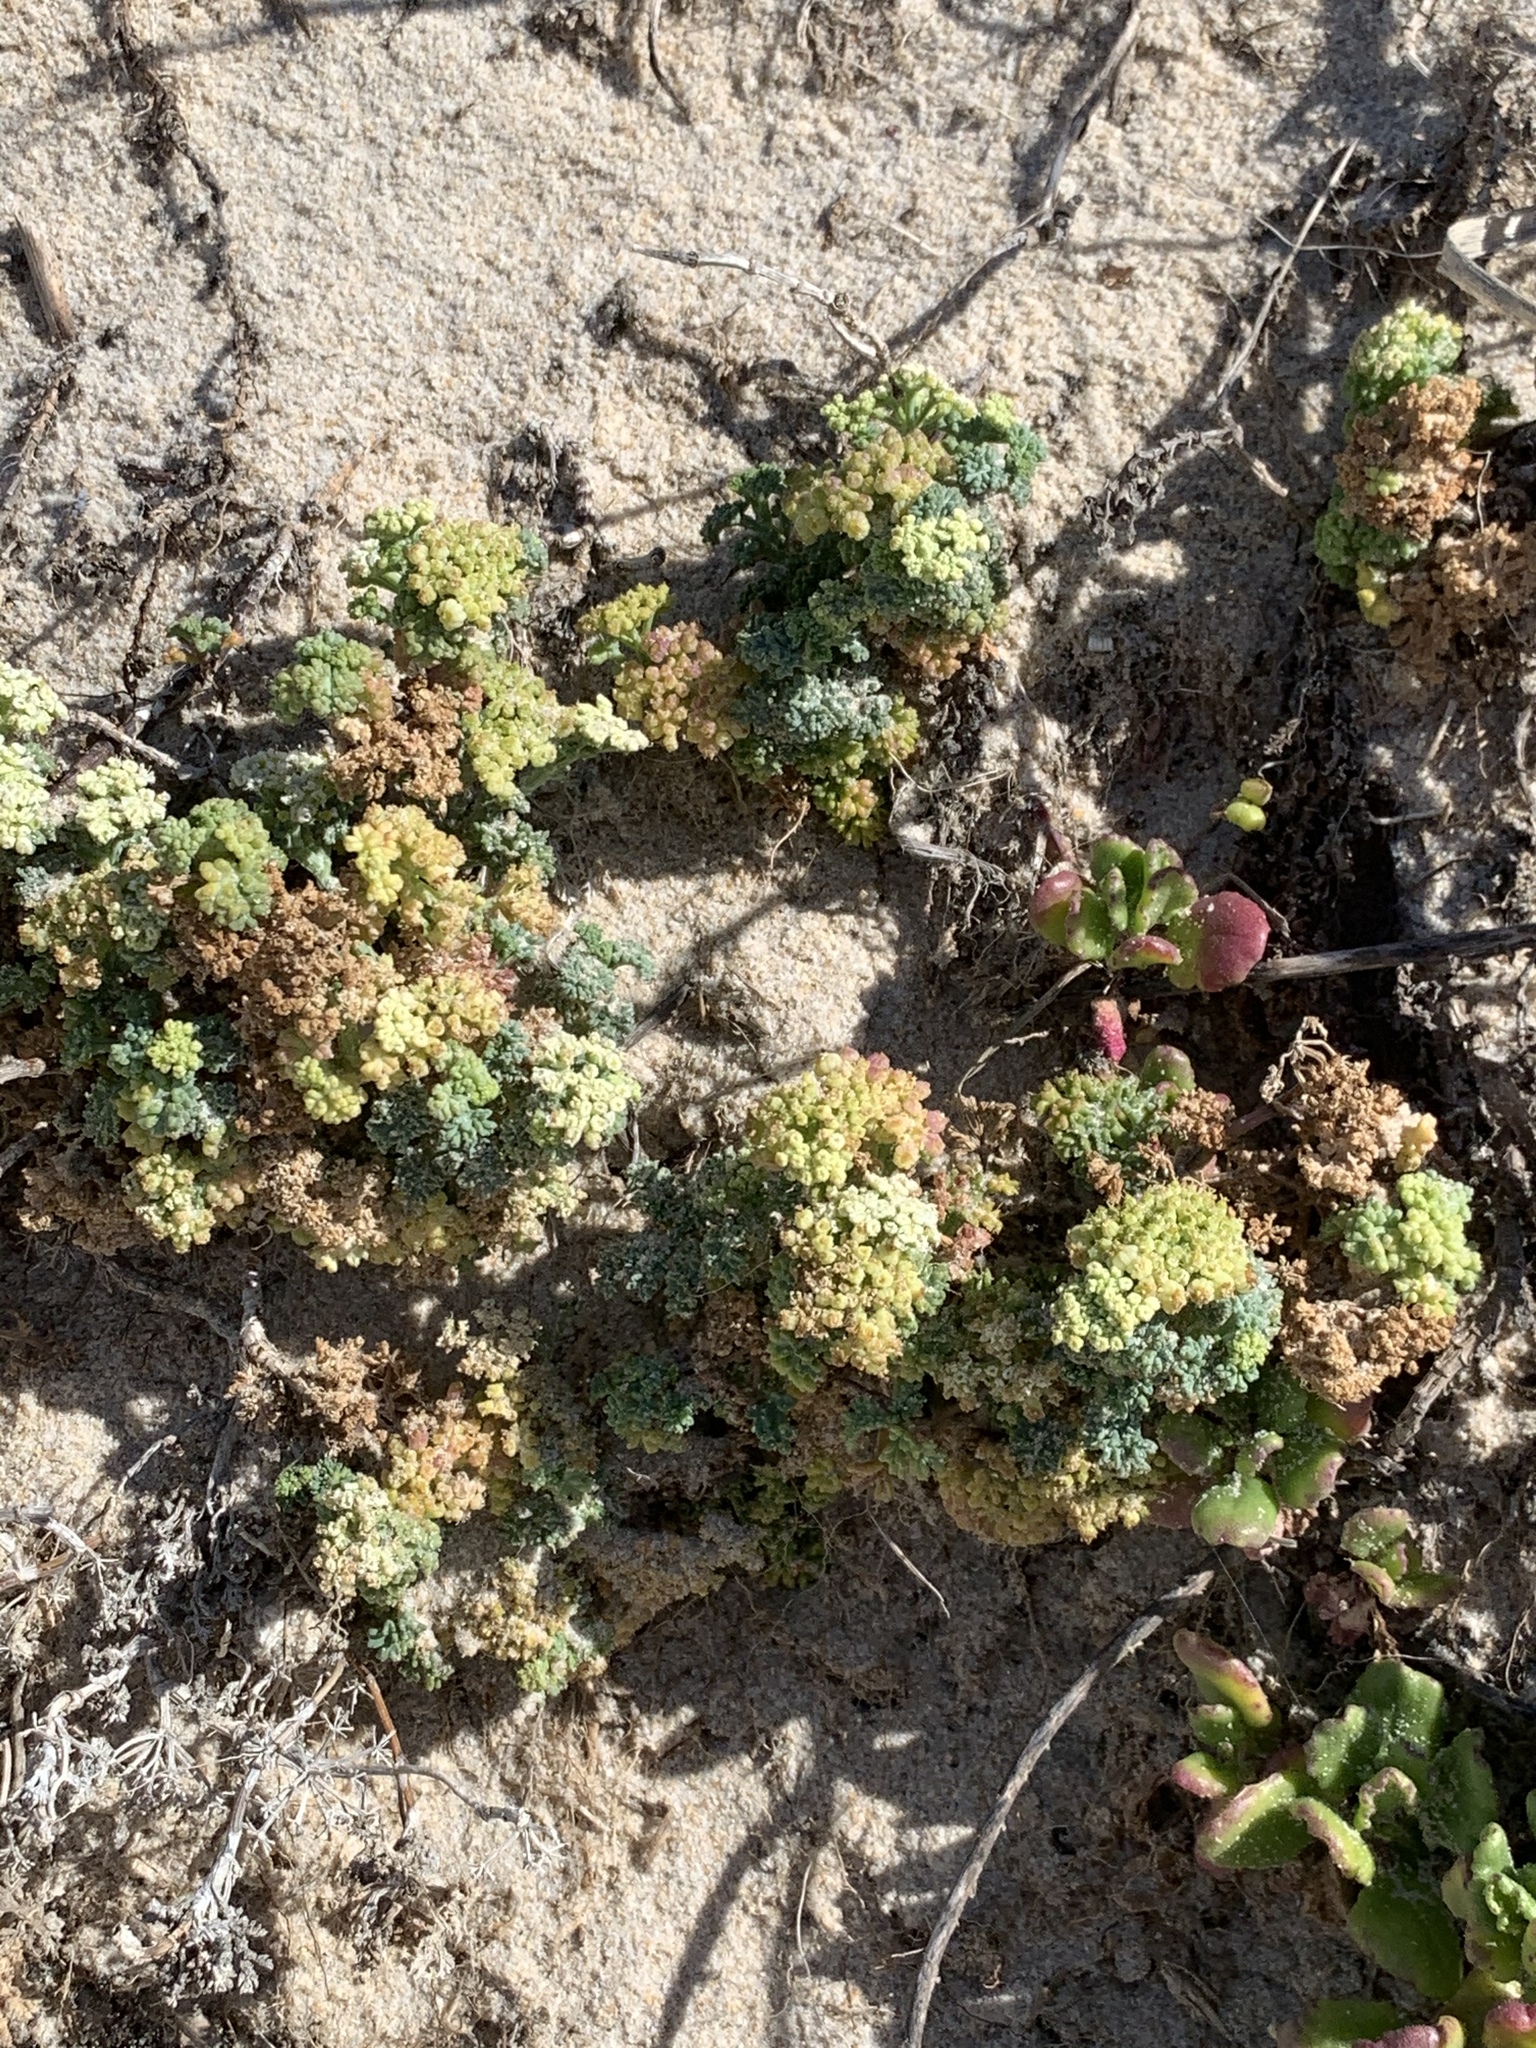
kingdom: Plantae
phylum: Tracheophyta
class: Magnoliopsida
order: Apiales
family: Apiaceae
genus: Dasispermum
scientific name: Dasispermum suffruticosum
